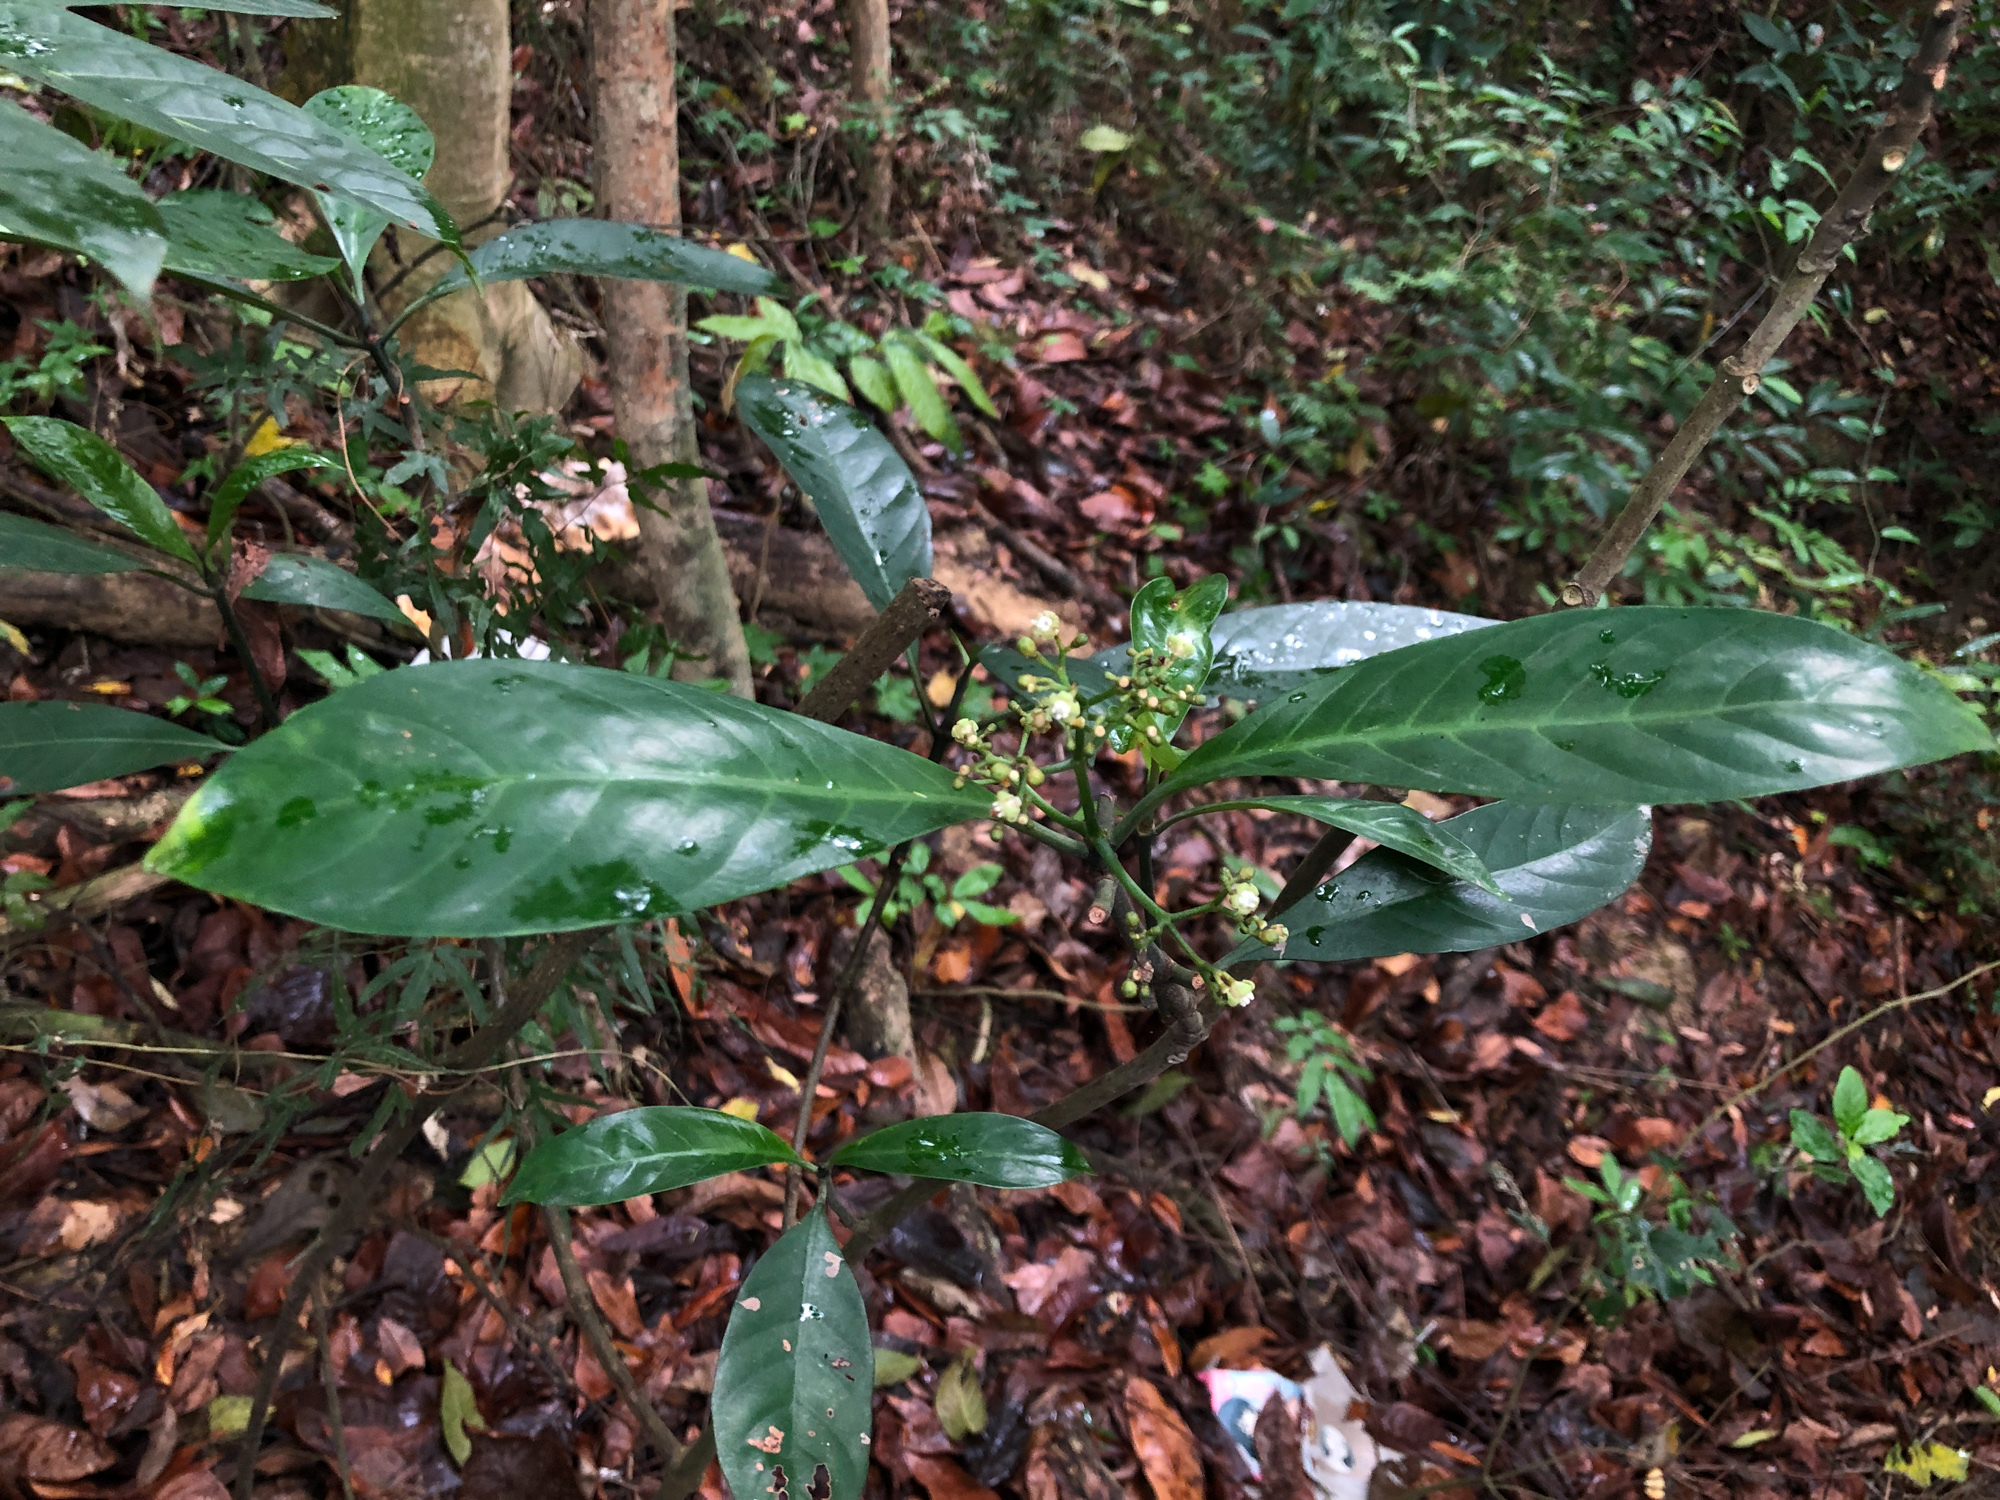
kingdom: Plantae
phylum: Tracheophyta
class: Magnoliopsida
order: Gentianales
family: Rubiaceae
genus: Psychotria
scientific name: Psychotria asiatica
